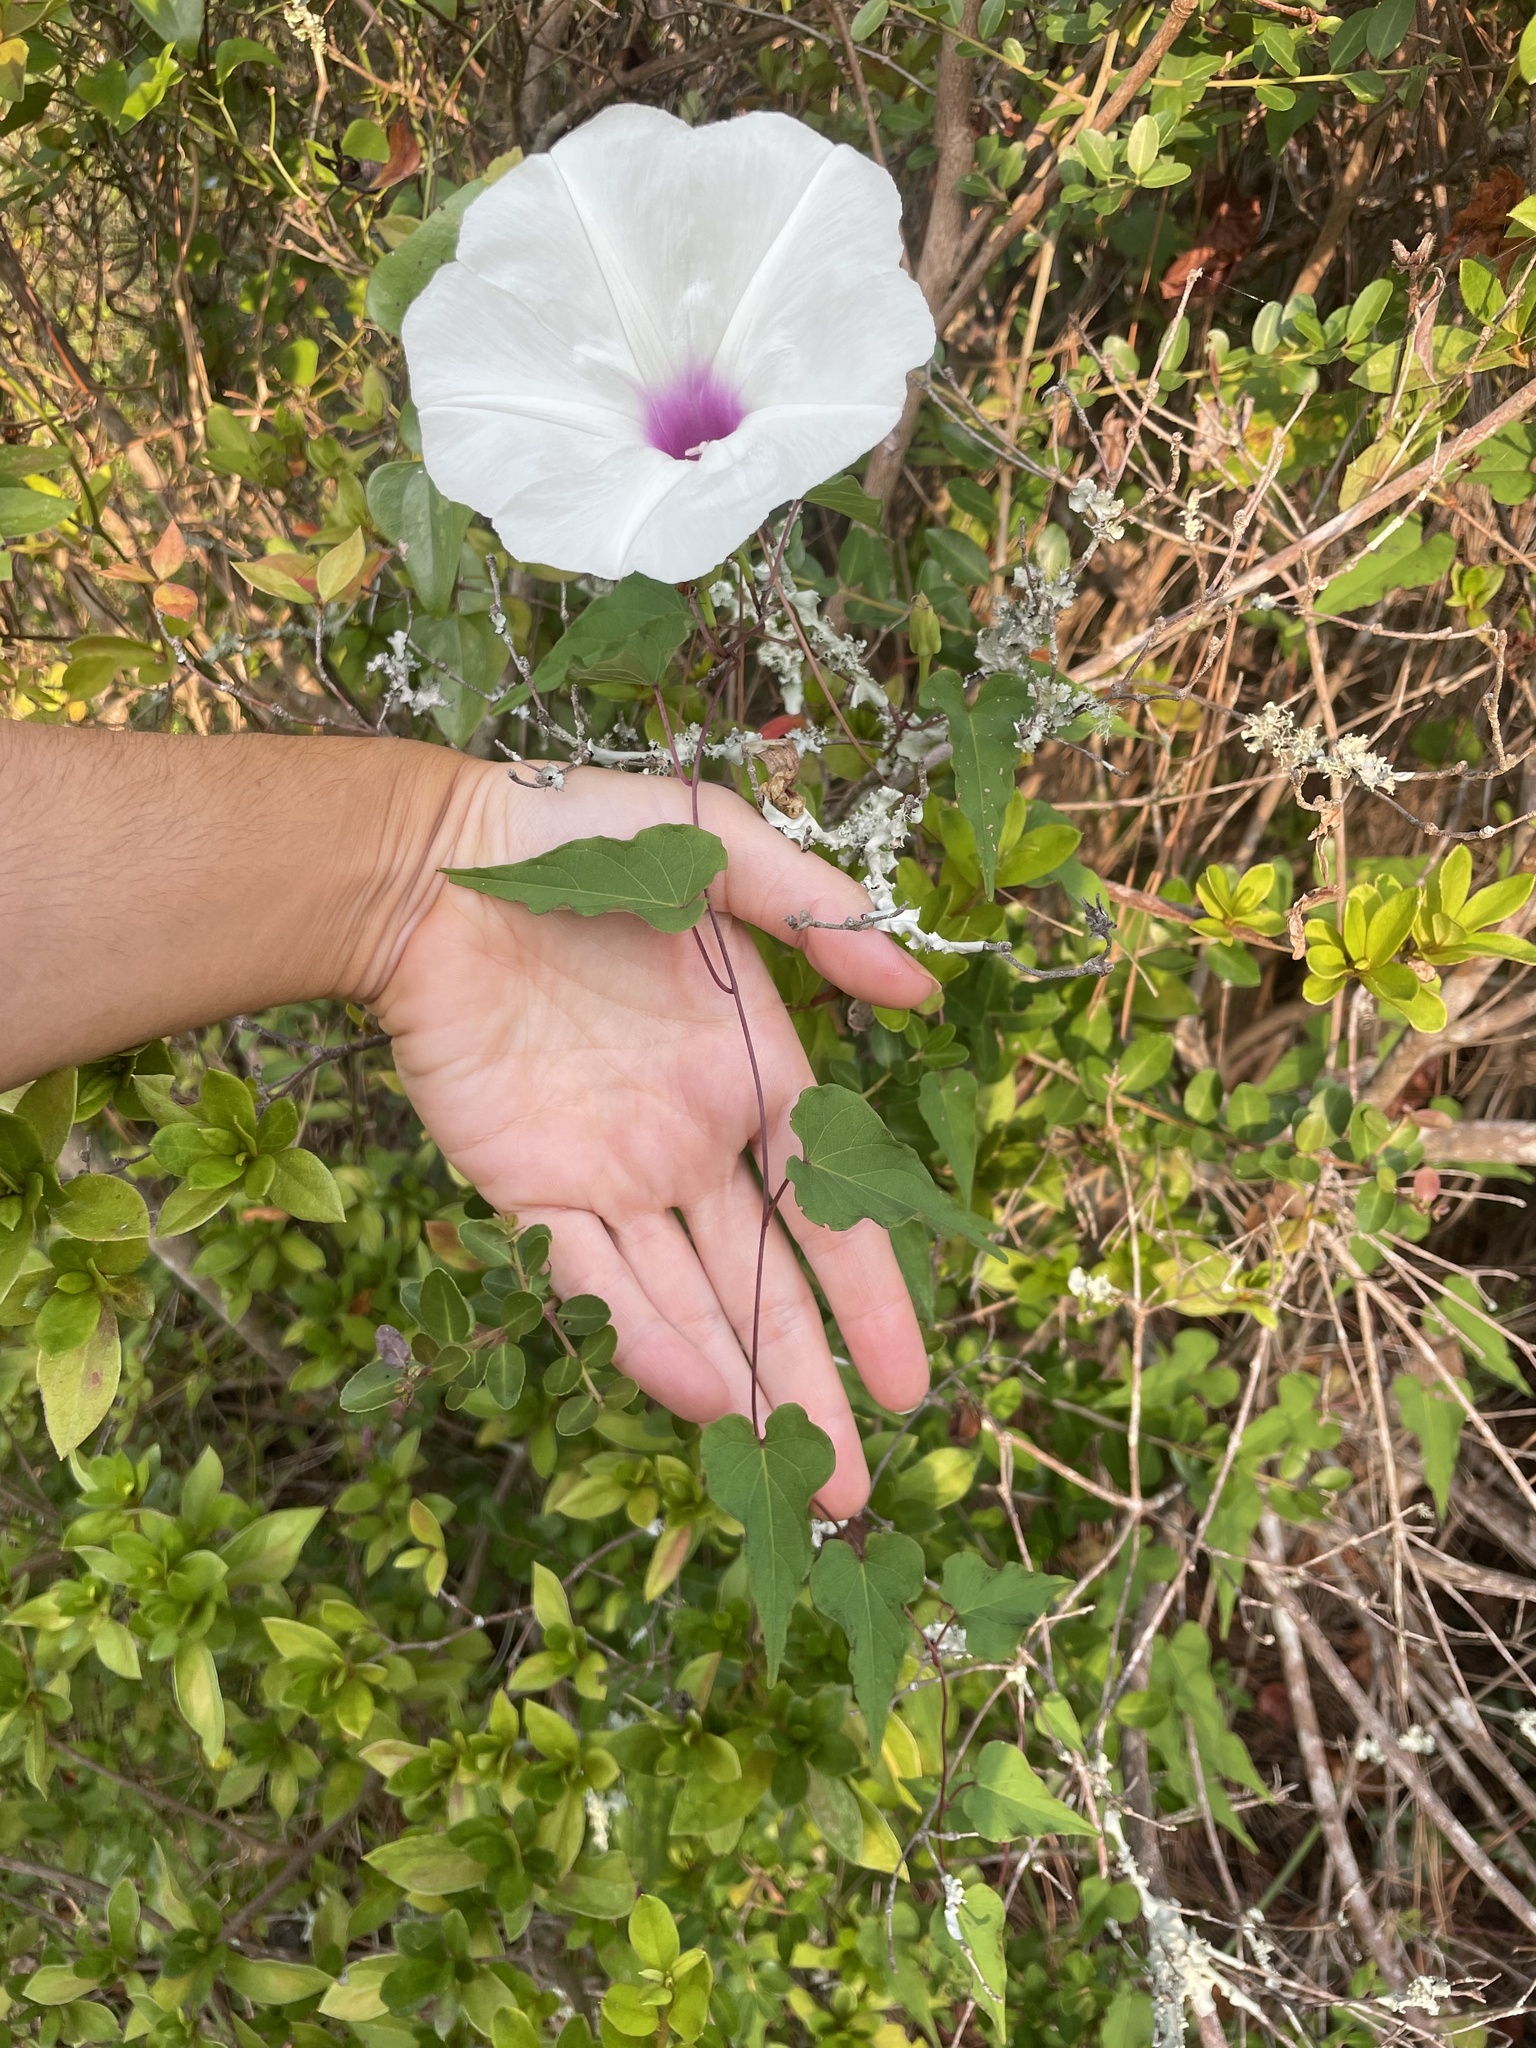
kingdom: Plantae
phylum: Tracheophyta
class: Magnoliopsida
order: Solanales
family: Convolvulaceae
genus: Ipomoea
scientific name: Ipomoea pandurata
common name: Man-of-the-earth
